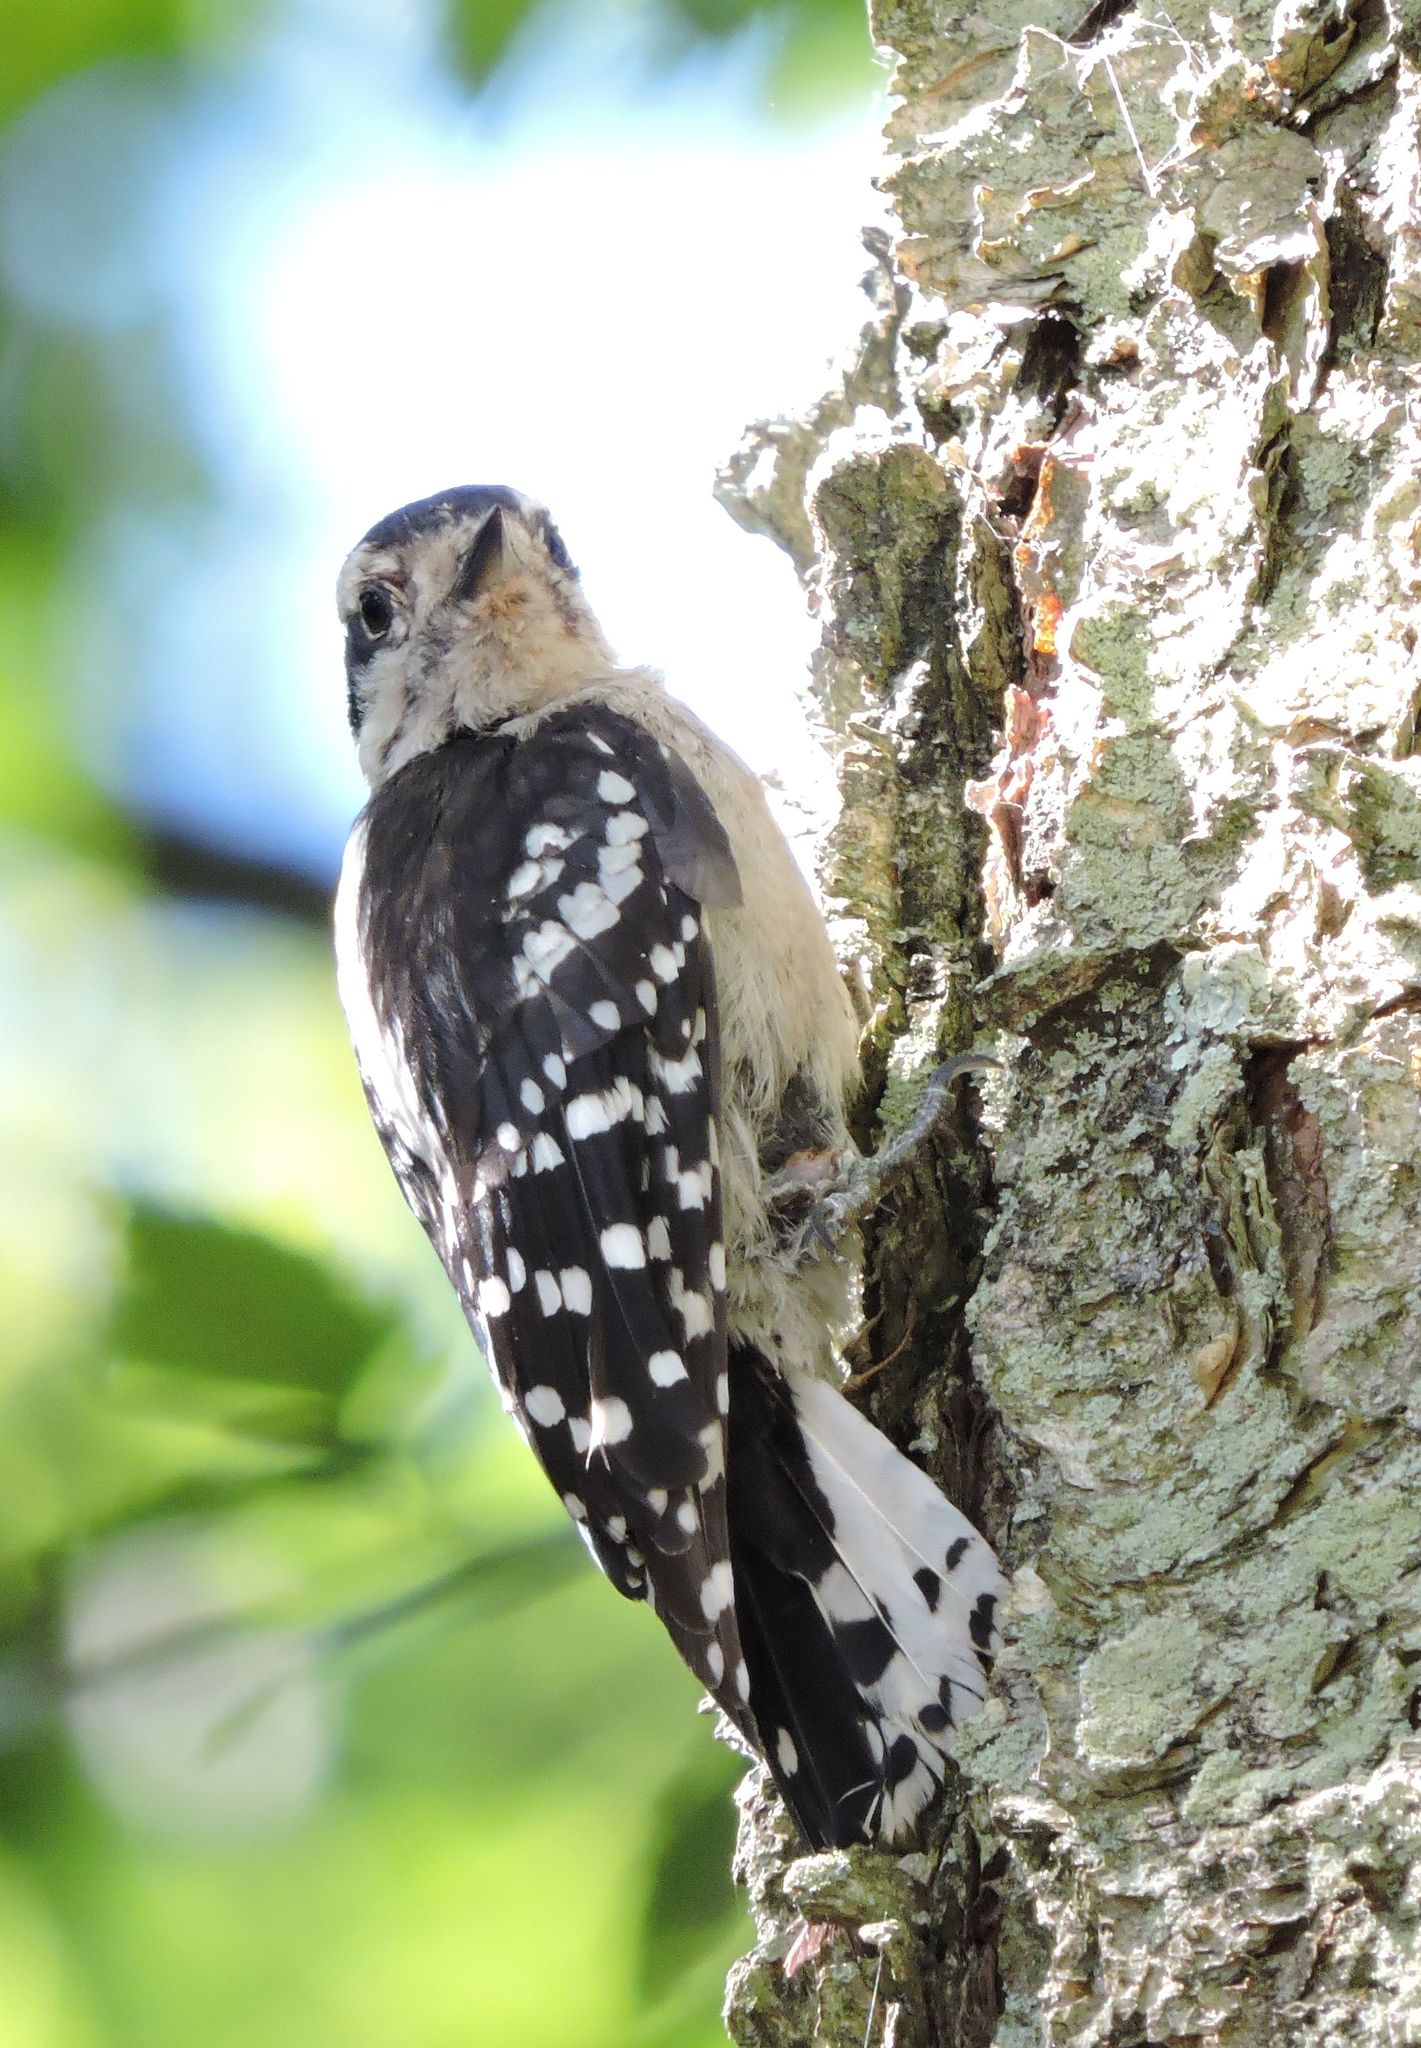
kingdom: Animalia
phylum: Chordata
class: Aves
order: Piciformes
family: Picidae
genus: Dryobates
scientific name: Dryobates pubescens
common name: Downy woodpecker
